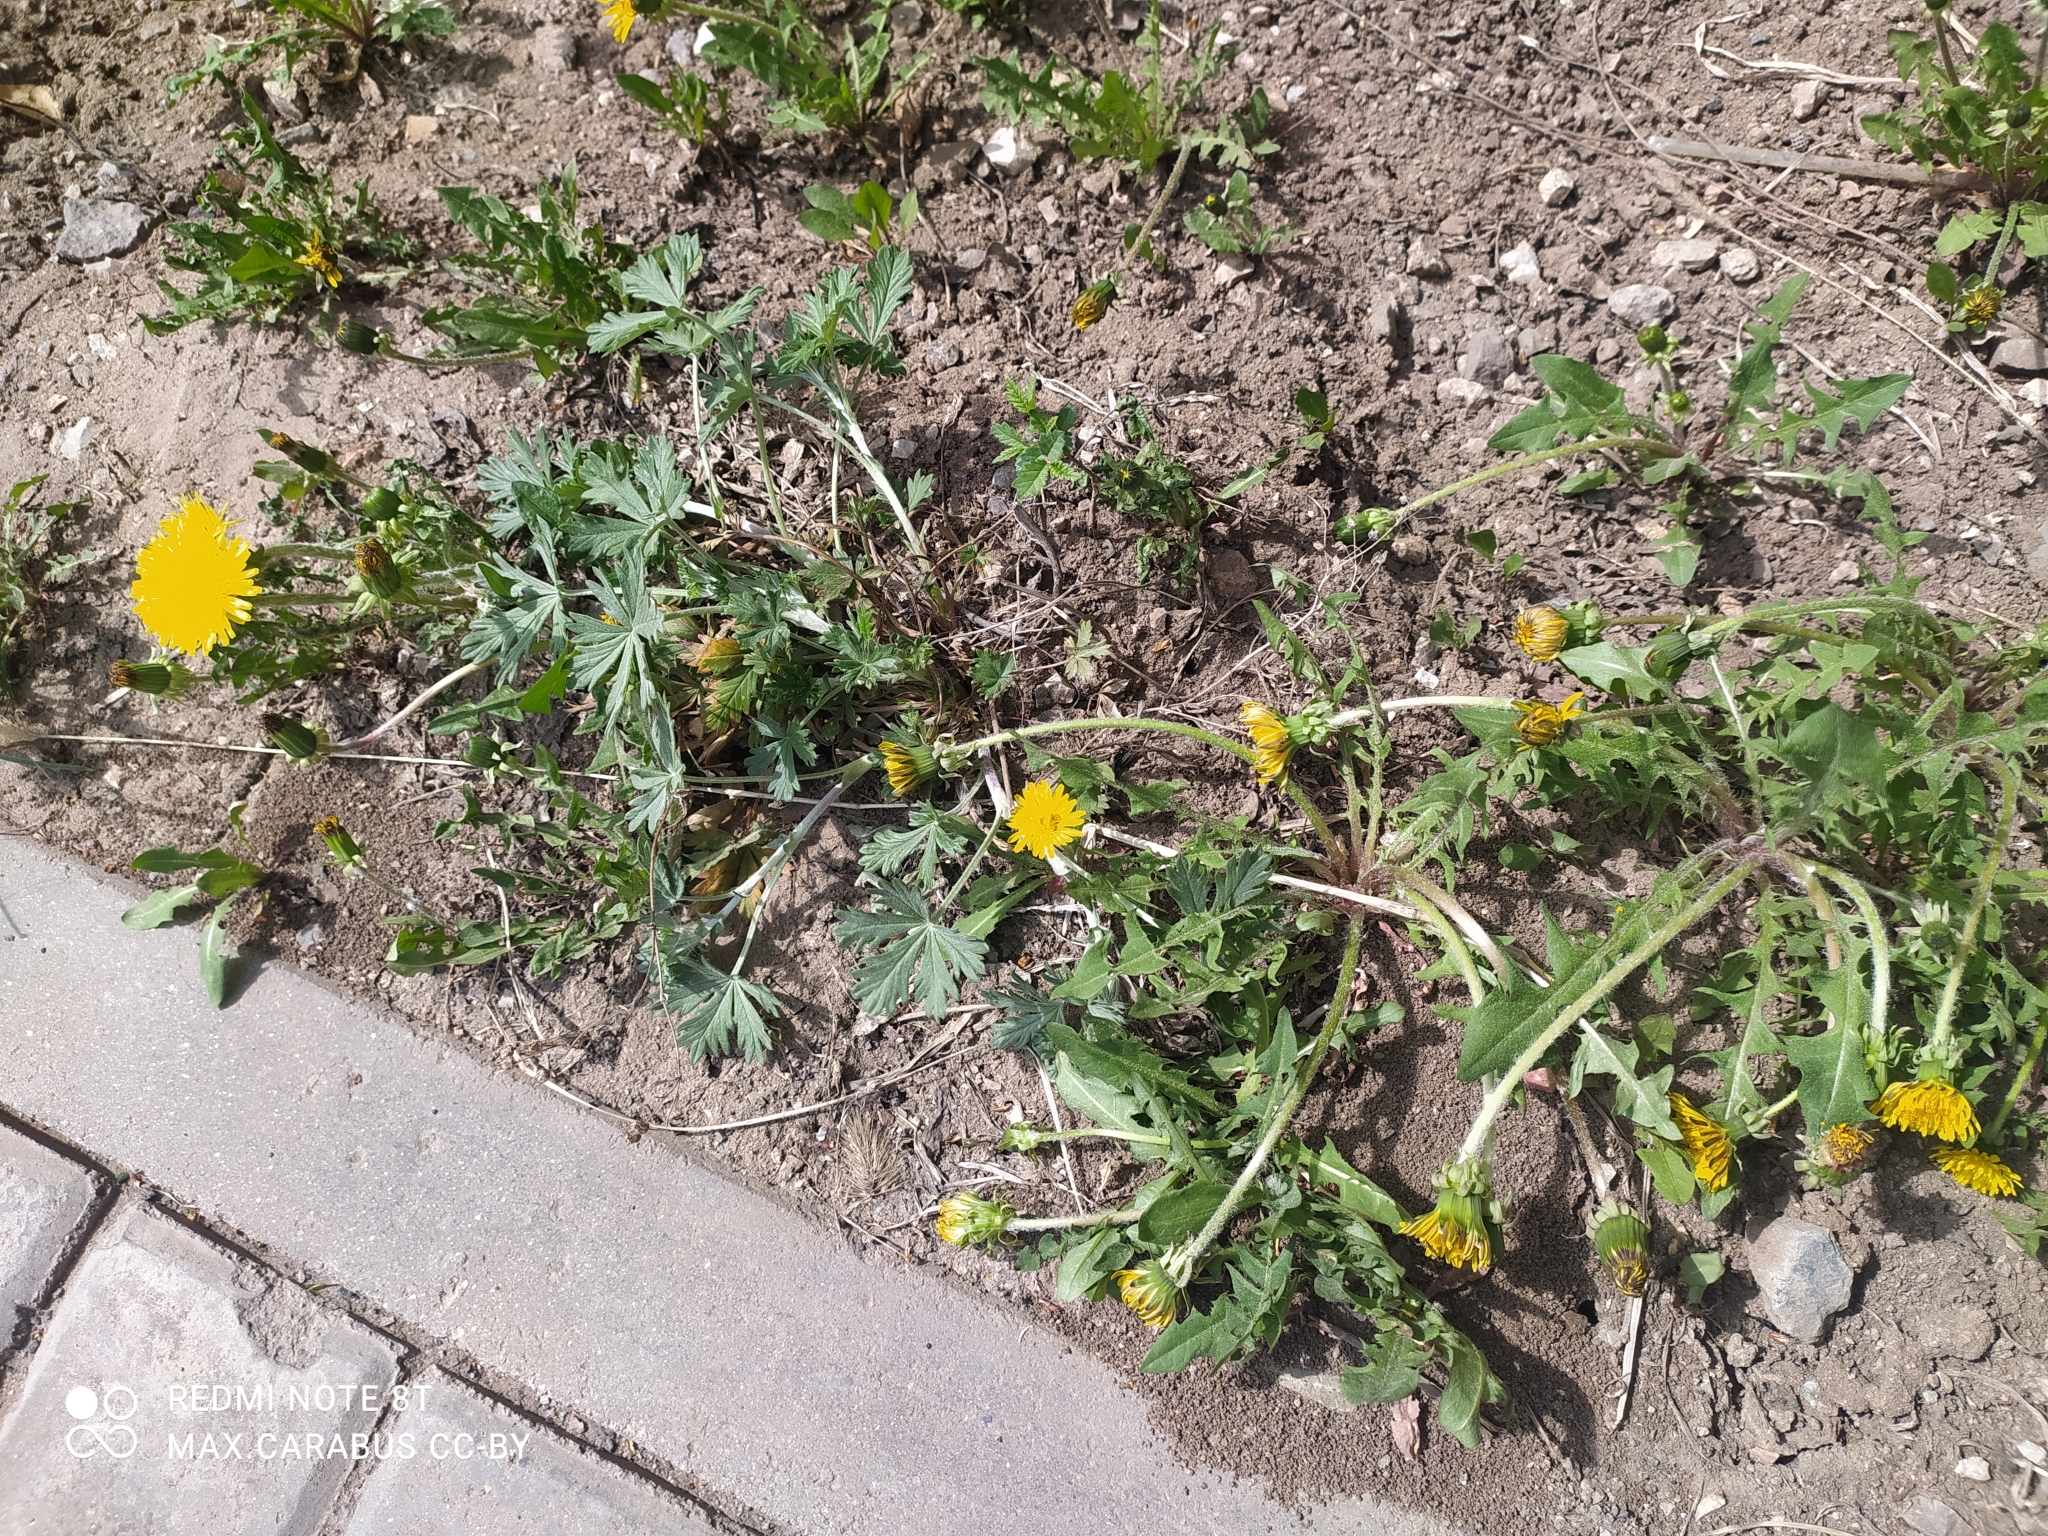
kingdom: Plantae
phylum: Tracheophyta
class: Magnoliopsida
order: Asterales
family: Asteraceae
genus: Taraxacum
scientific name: Taraxacum officinale
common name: Common dandelion
